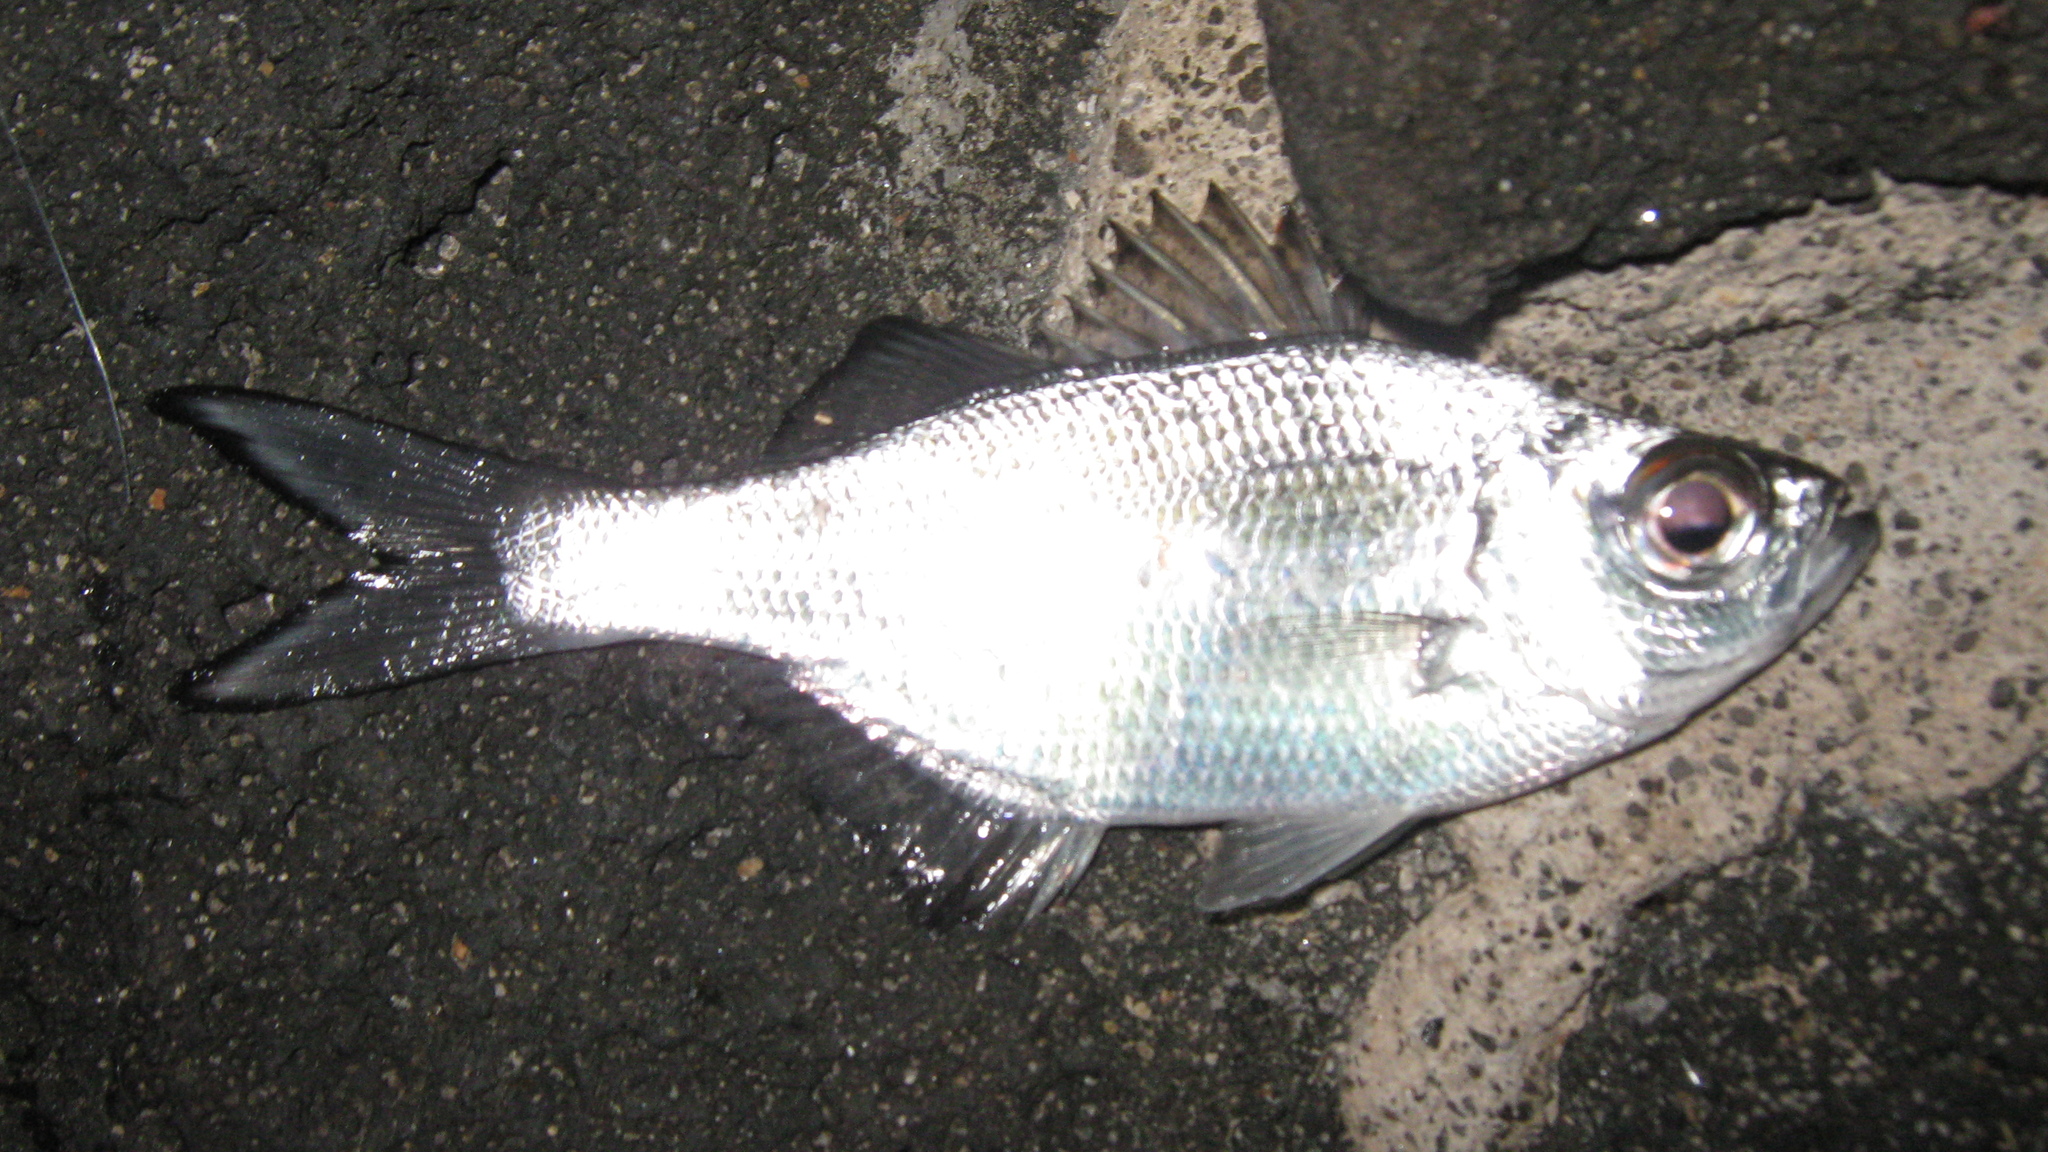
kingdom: Animalia
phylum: Chordata
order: Perciformes
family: Kuhliidae
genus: Kuhlia
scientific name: Kuhlia xenura
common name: Hawaiian flagtail
